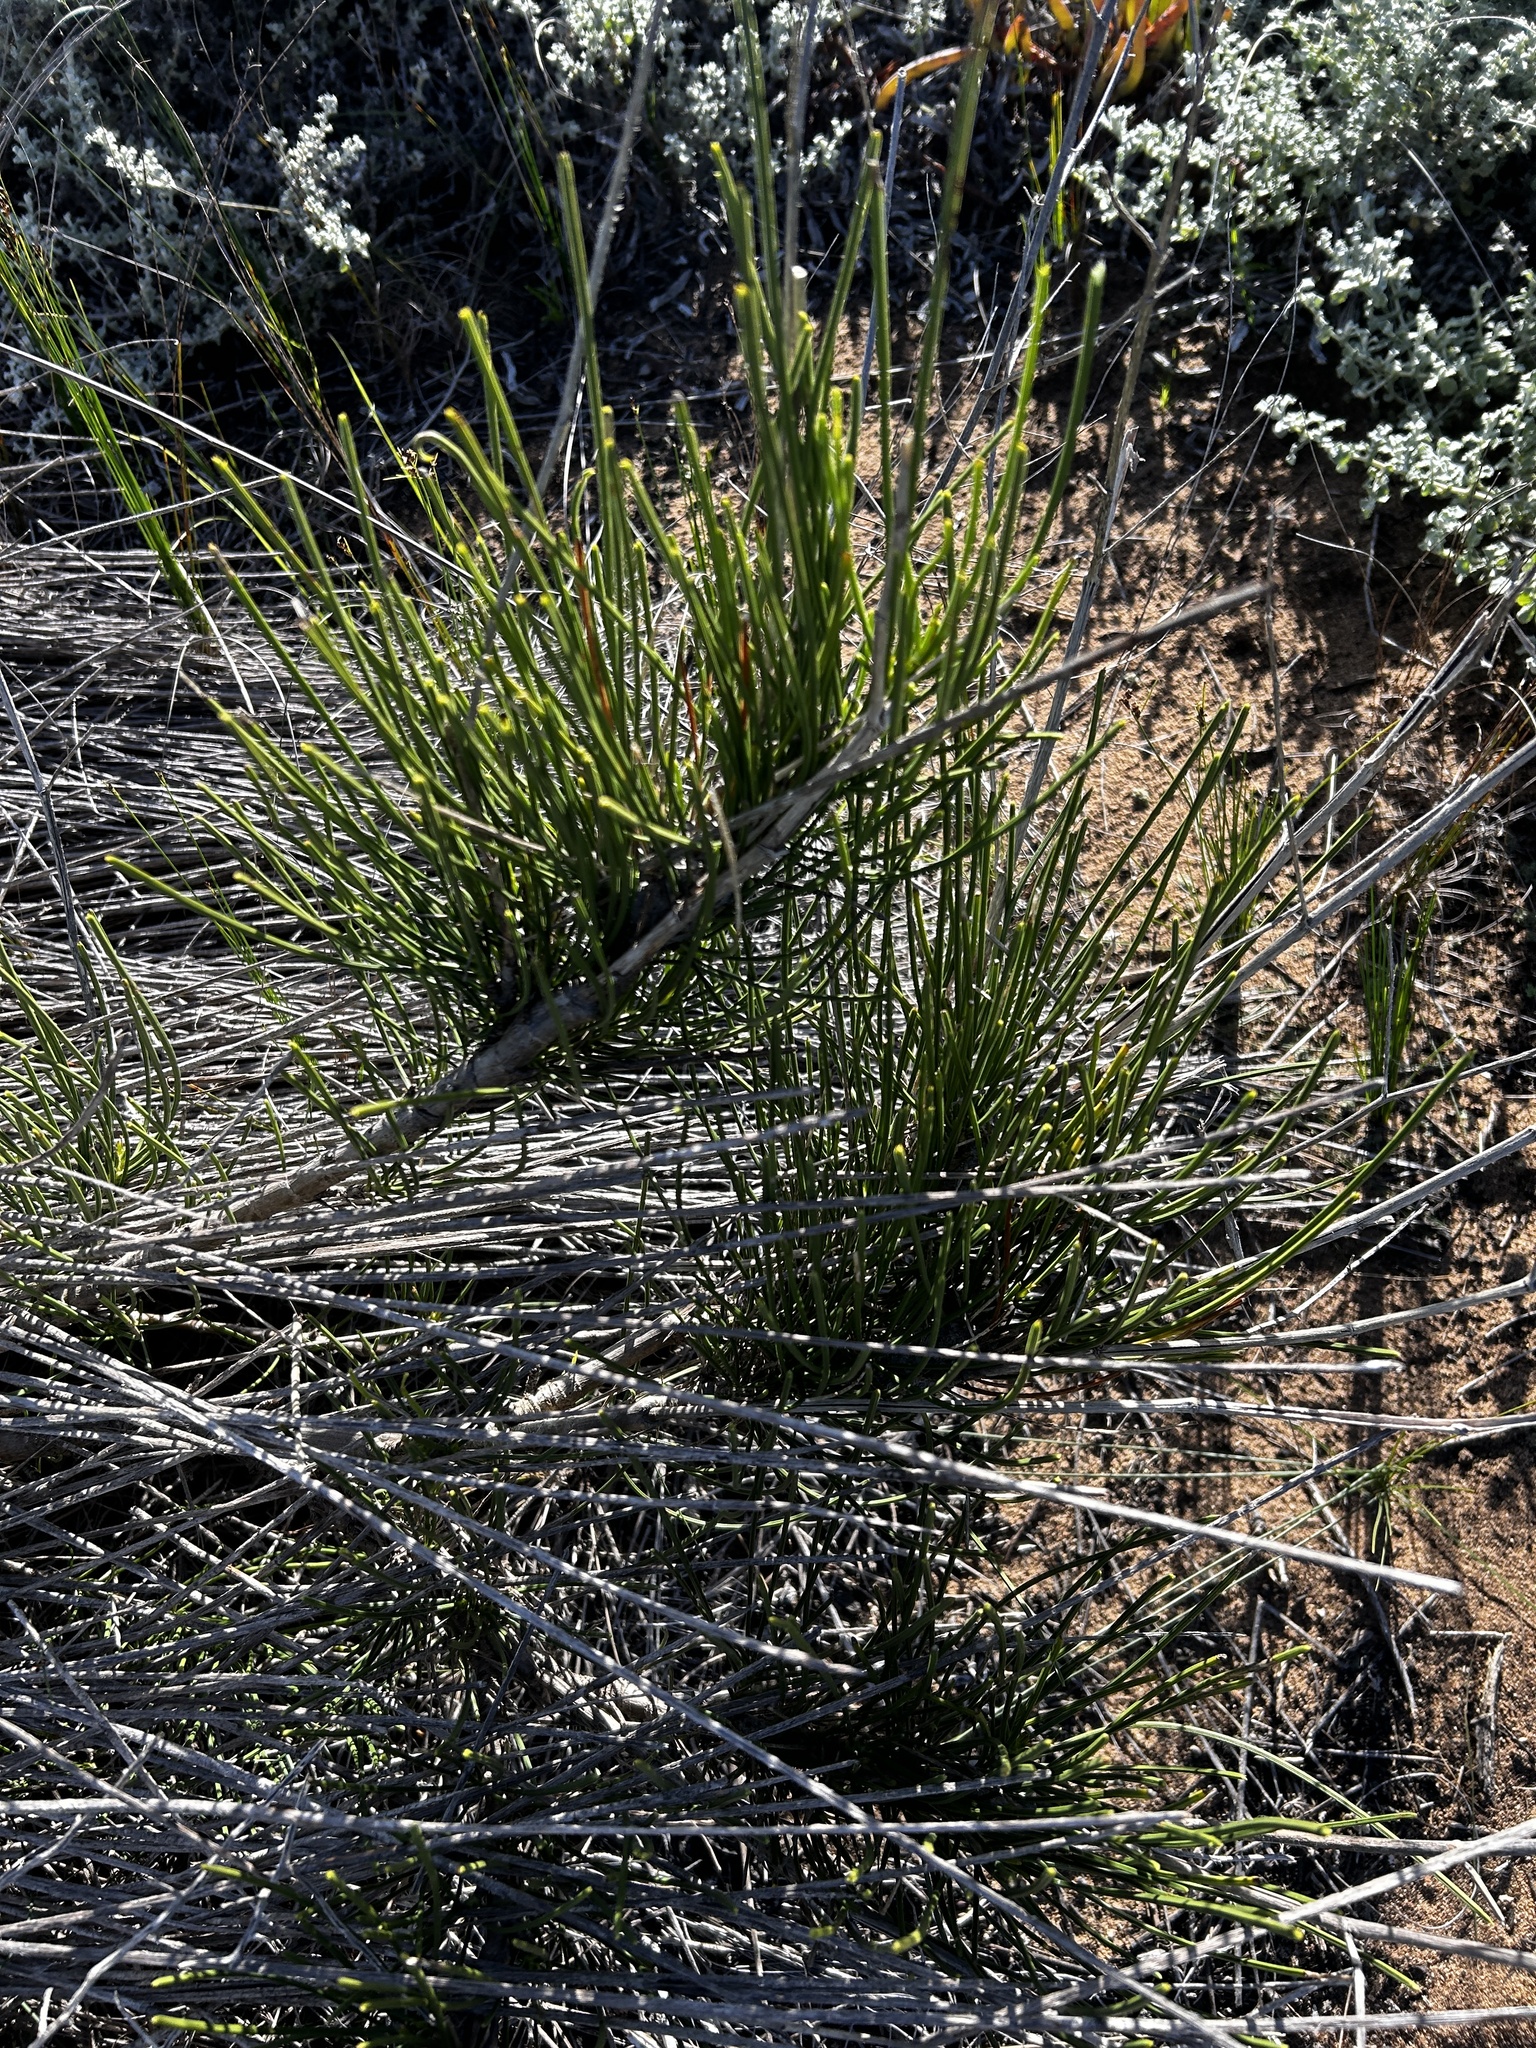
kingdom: Plantae
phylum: Tracheophyta
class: Magnoliopsida
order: Apiales
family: Apiaceae
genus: Anginon
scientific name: Anginon difforme
